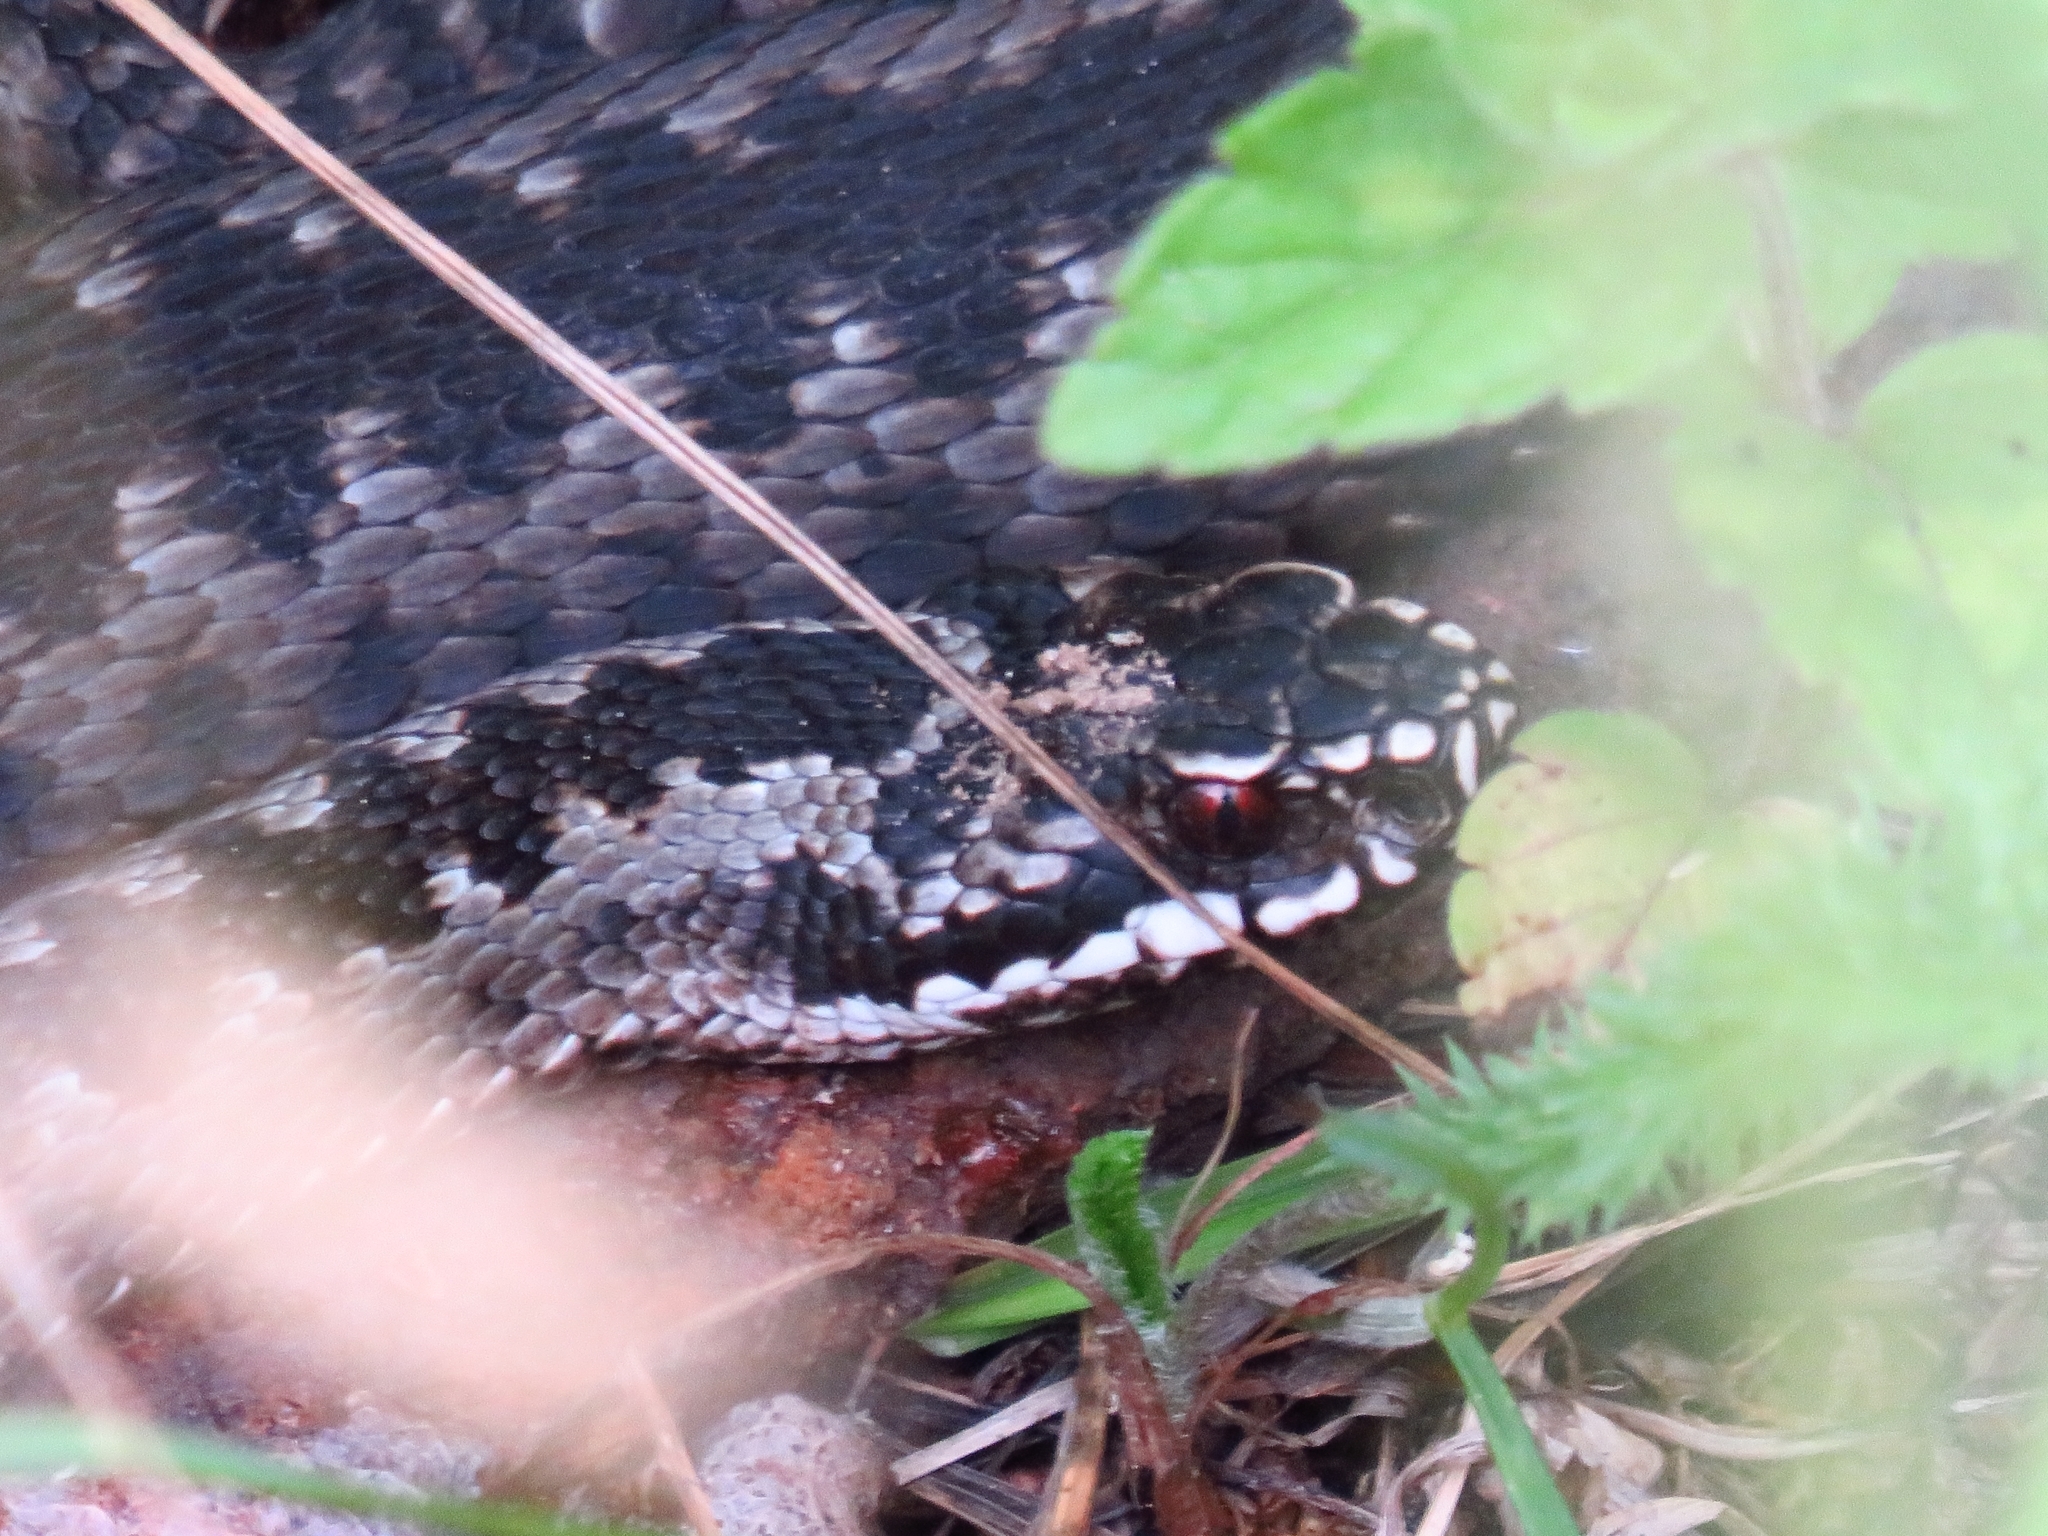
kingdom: Animalia
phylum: Chordata
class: Squamata
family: Viperidae
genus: Vipera
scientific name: Vipera berus
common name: Adder
